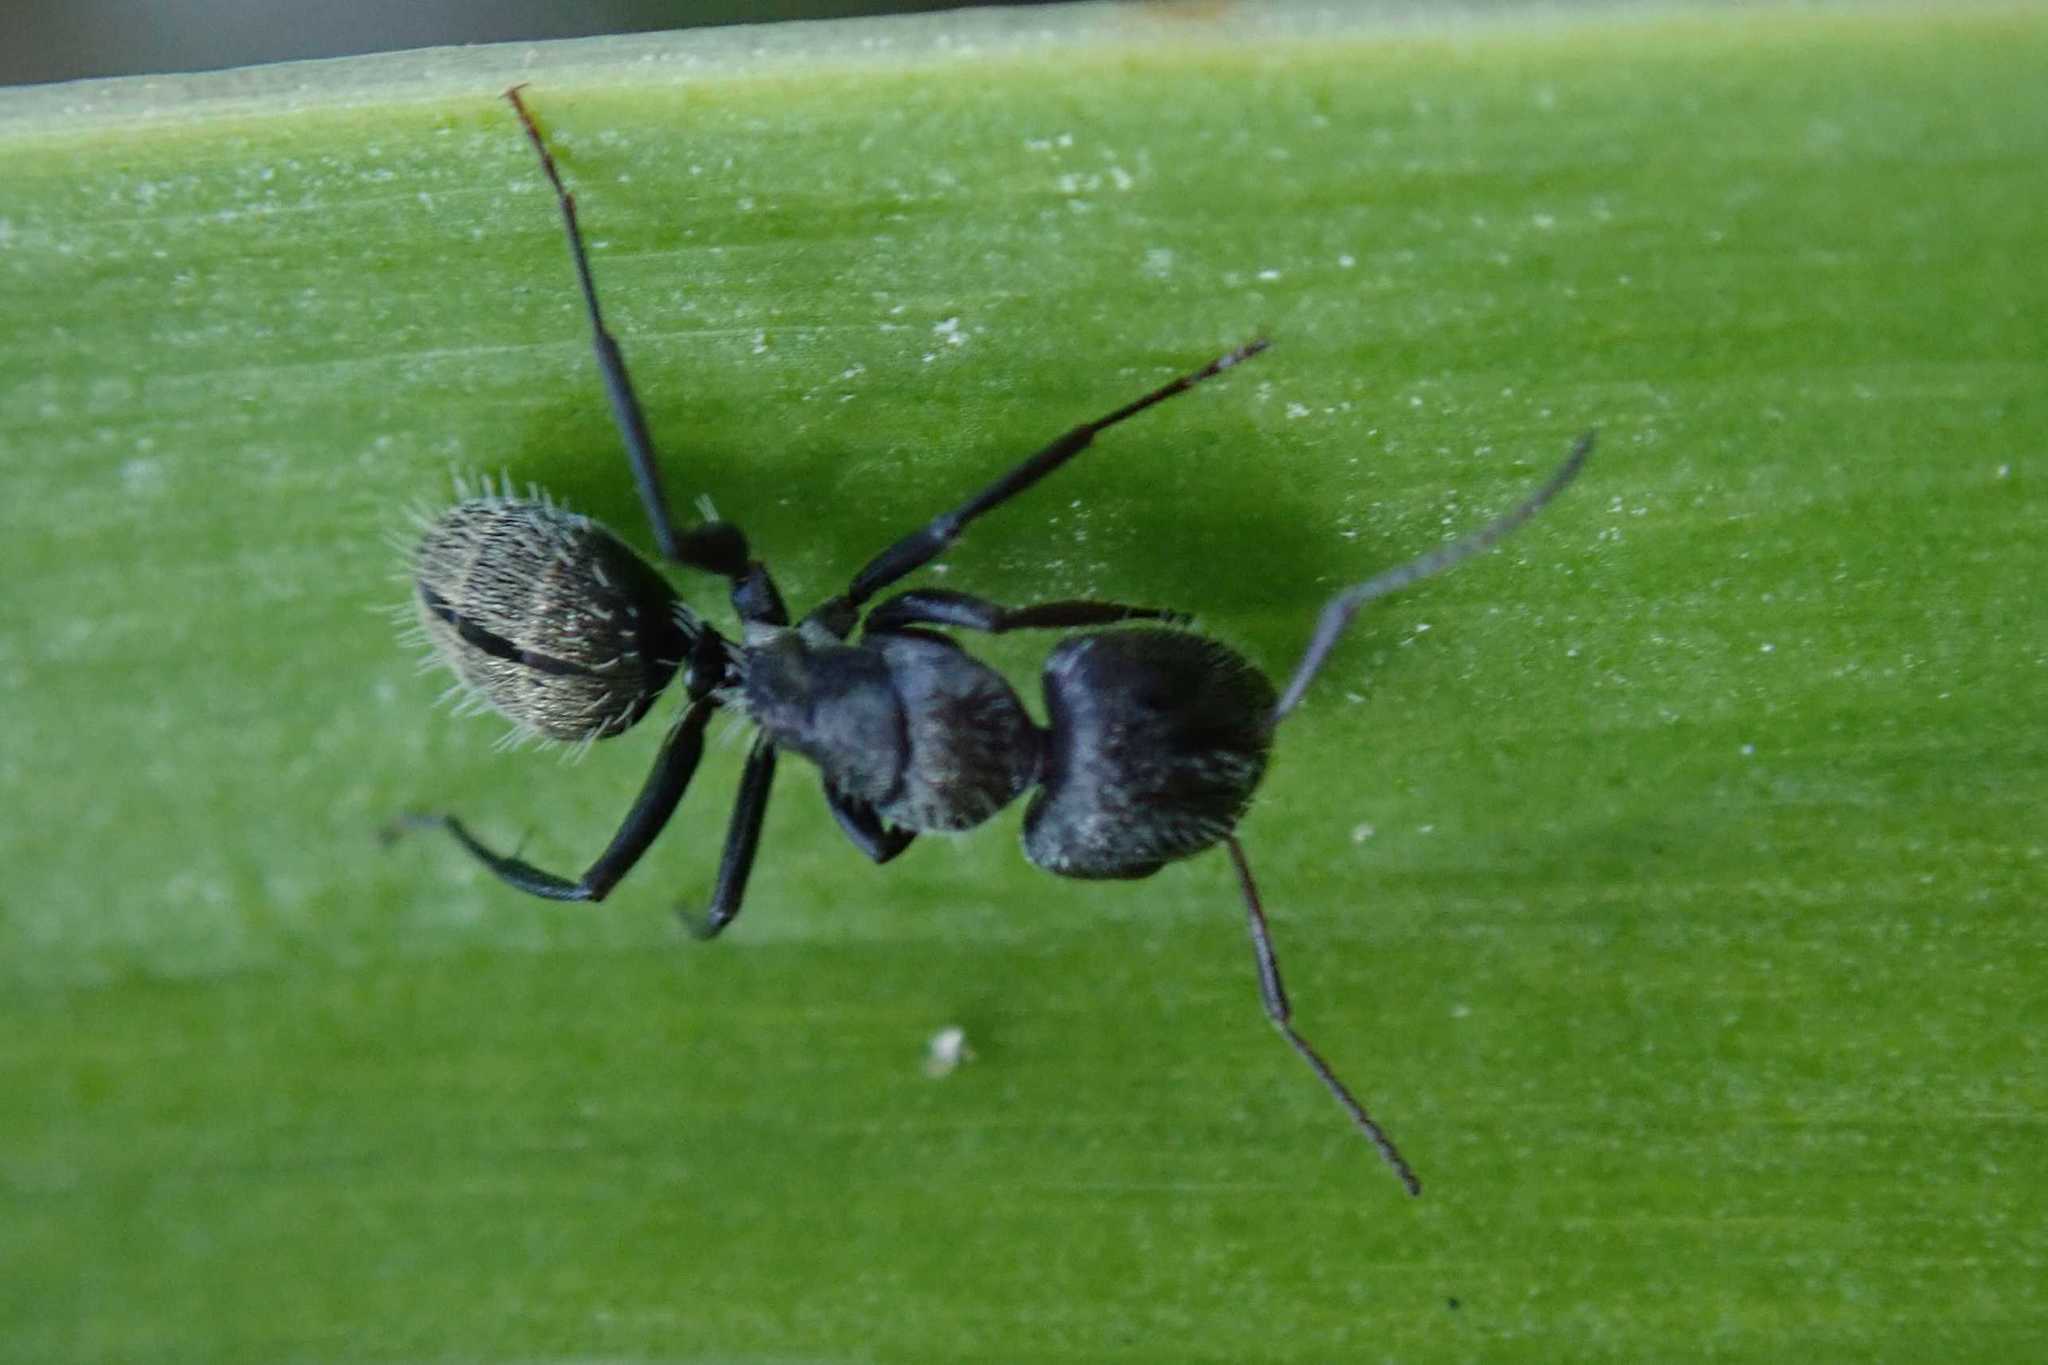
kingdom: Animalia
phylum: Arthropoda
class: Insecta
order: Hymenoptera
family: Formicidae
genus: Camponotus
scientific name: Camponotus amphidus
